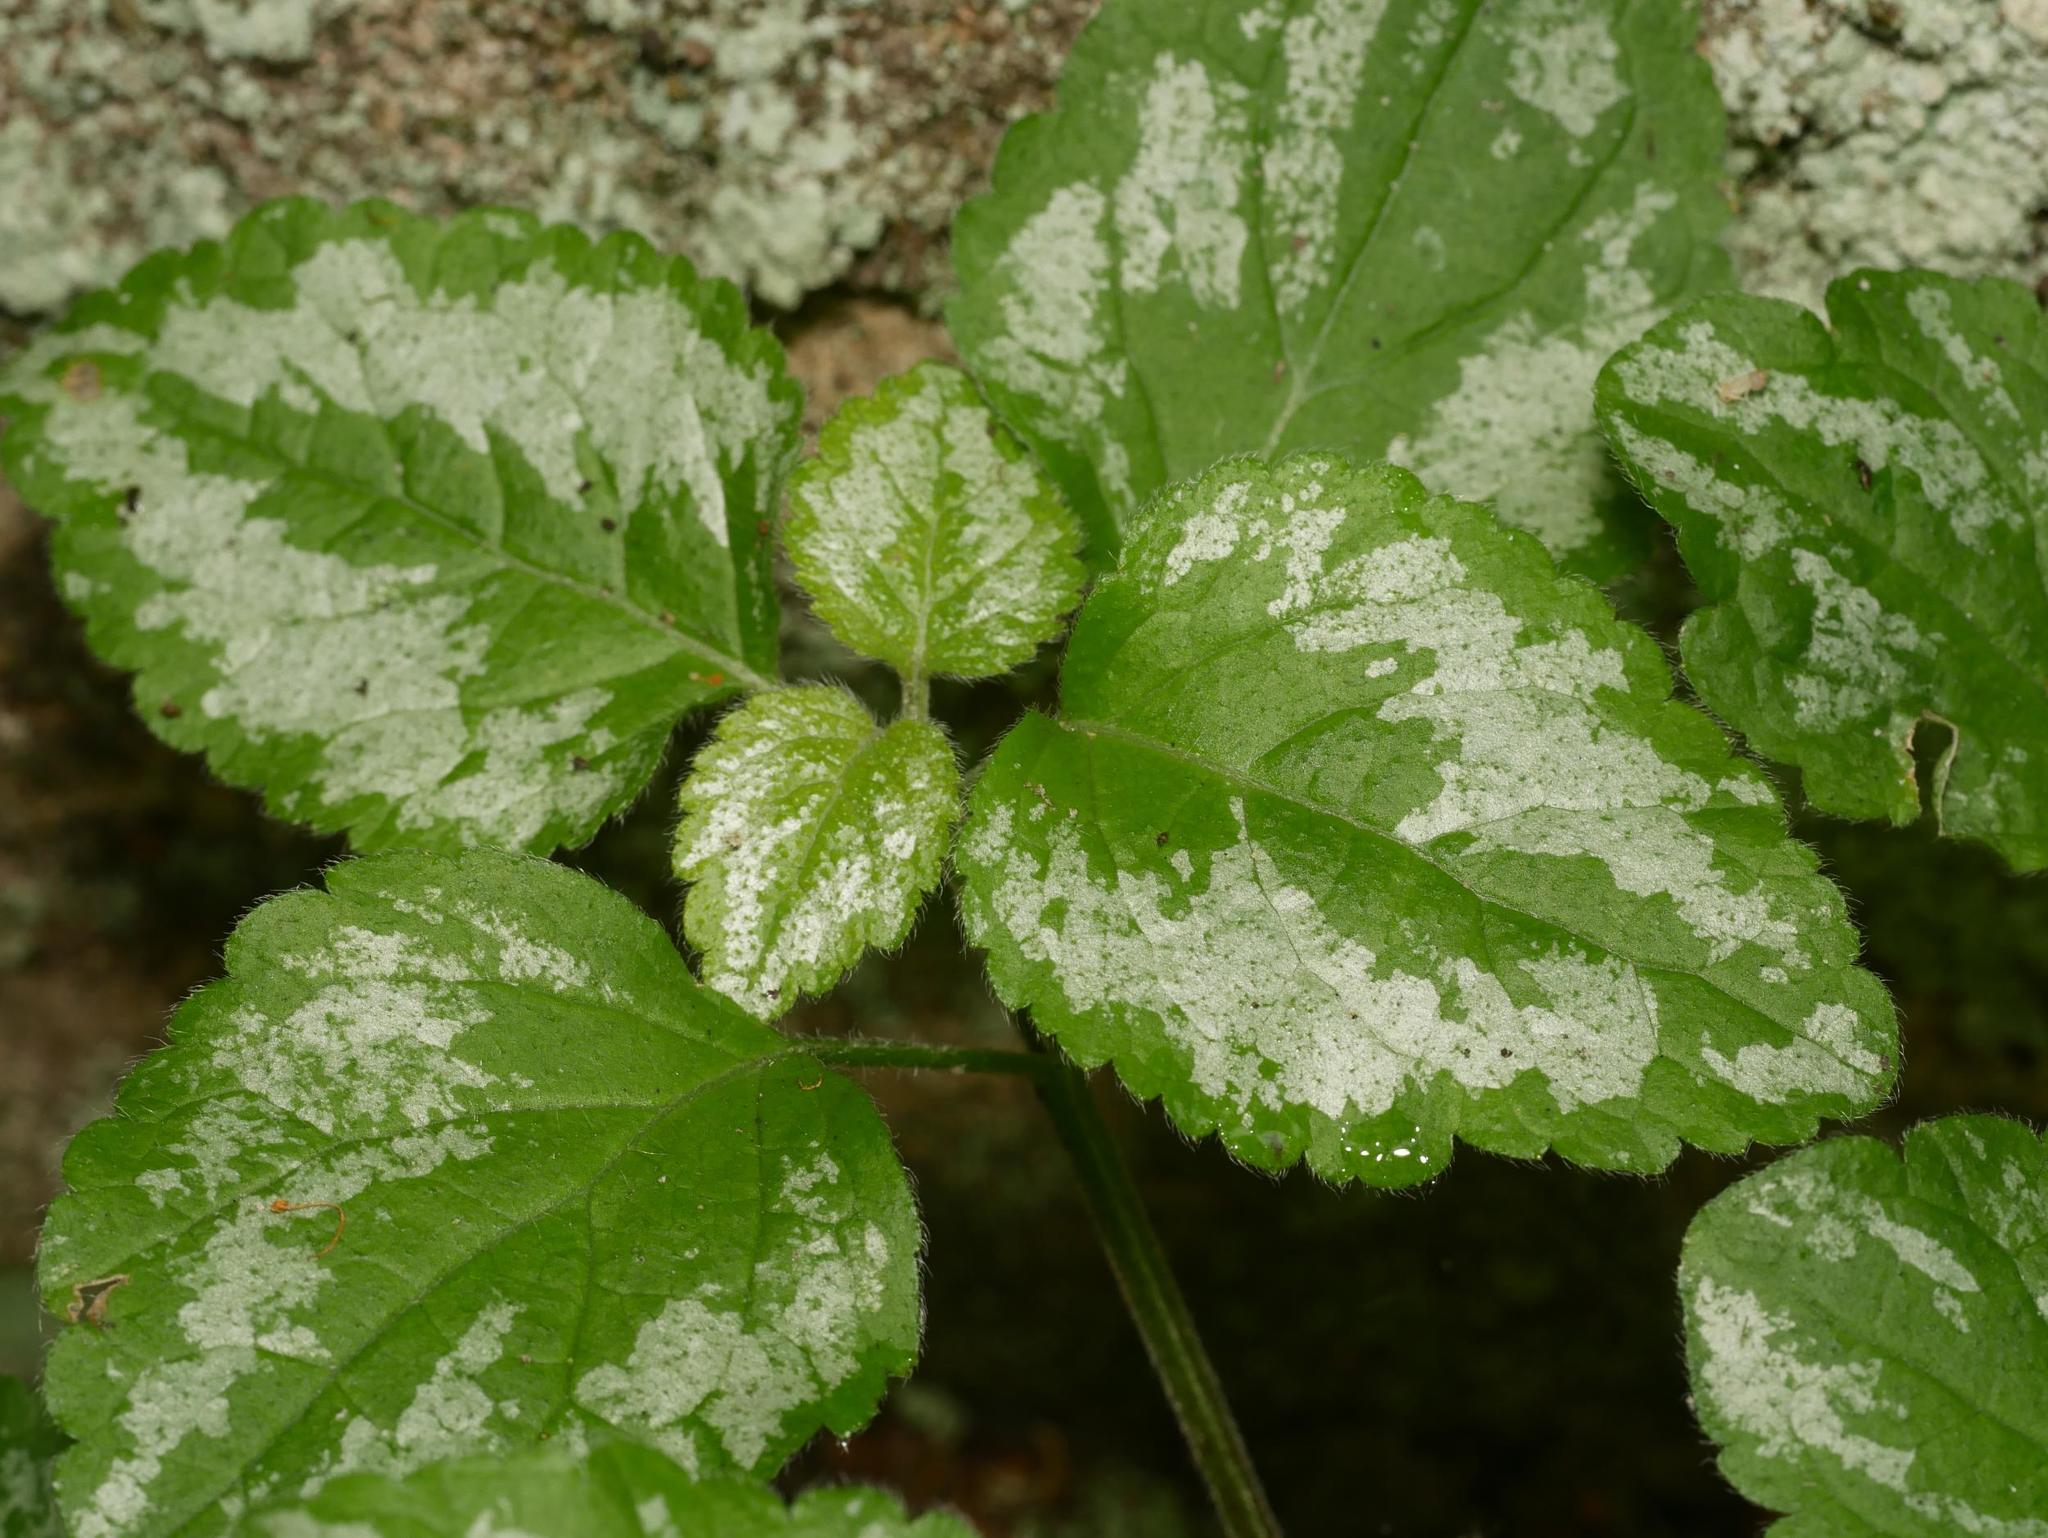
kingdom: Plantae
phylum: Tracheophyta
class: Magnoliopsida
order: Lamiales
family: Lamiaceae
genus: Lamium
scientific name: Lamium galeobdolon
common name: Yellow archangel
